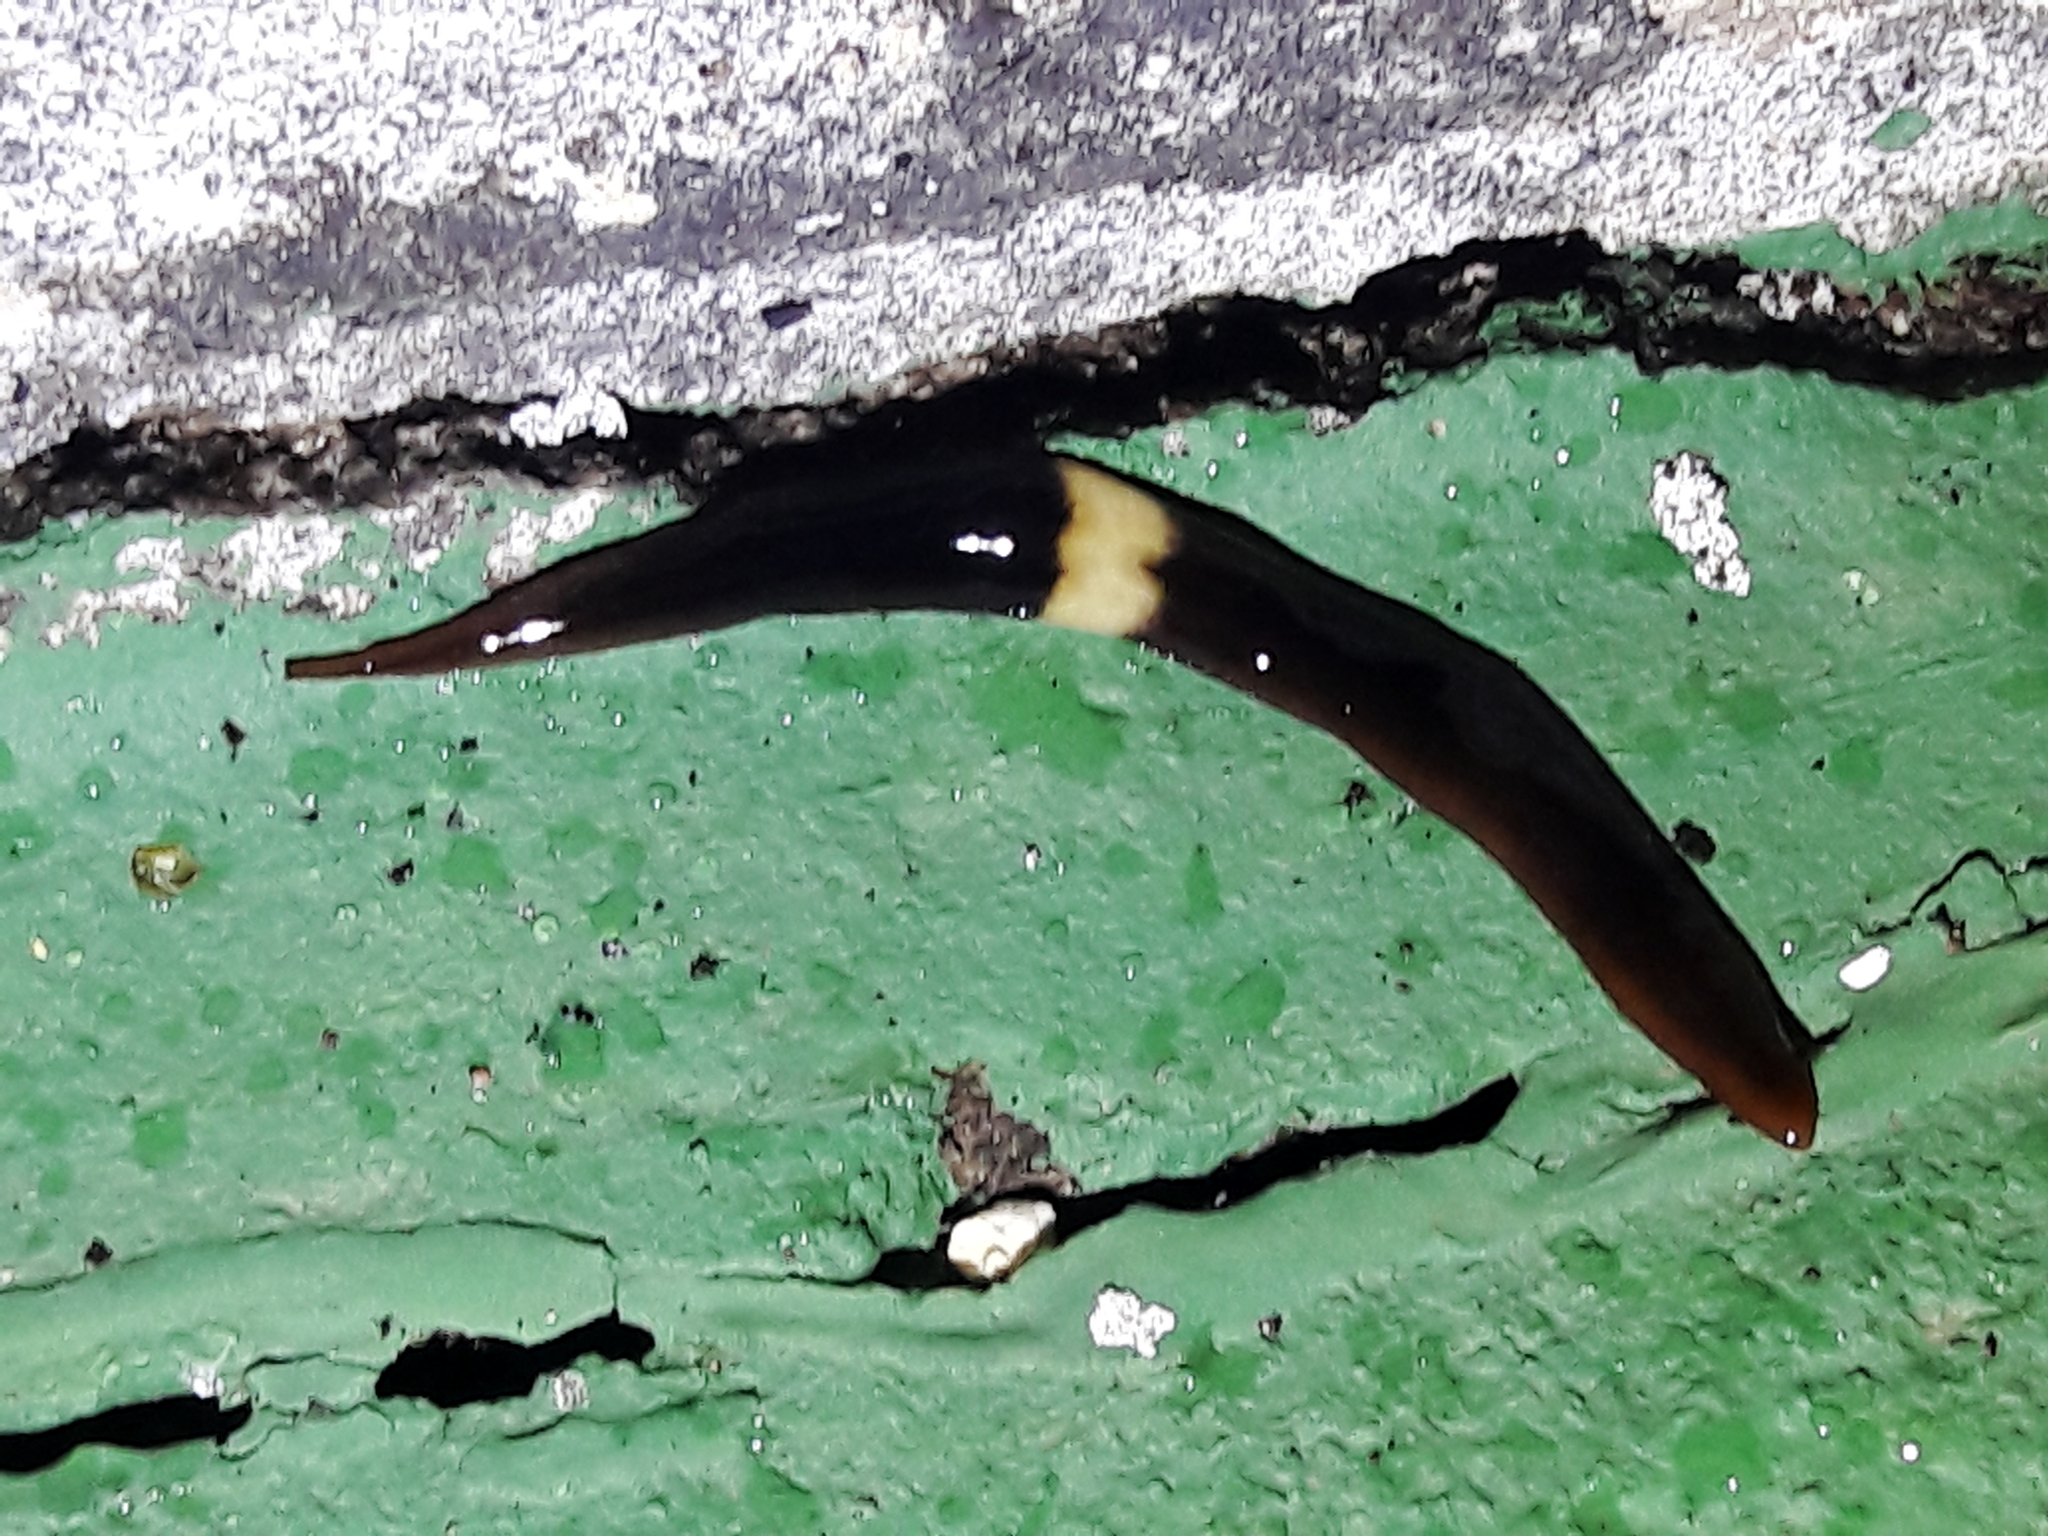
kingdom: Animalia
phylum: Platyhelminthes
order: Tricladida
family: Geoplanidae
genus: Paraba
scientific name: Paraba pankaru
